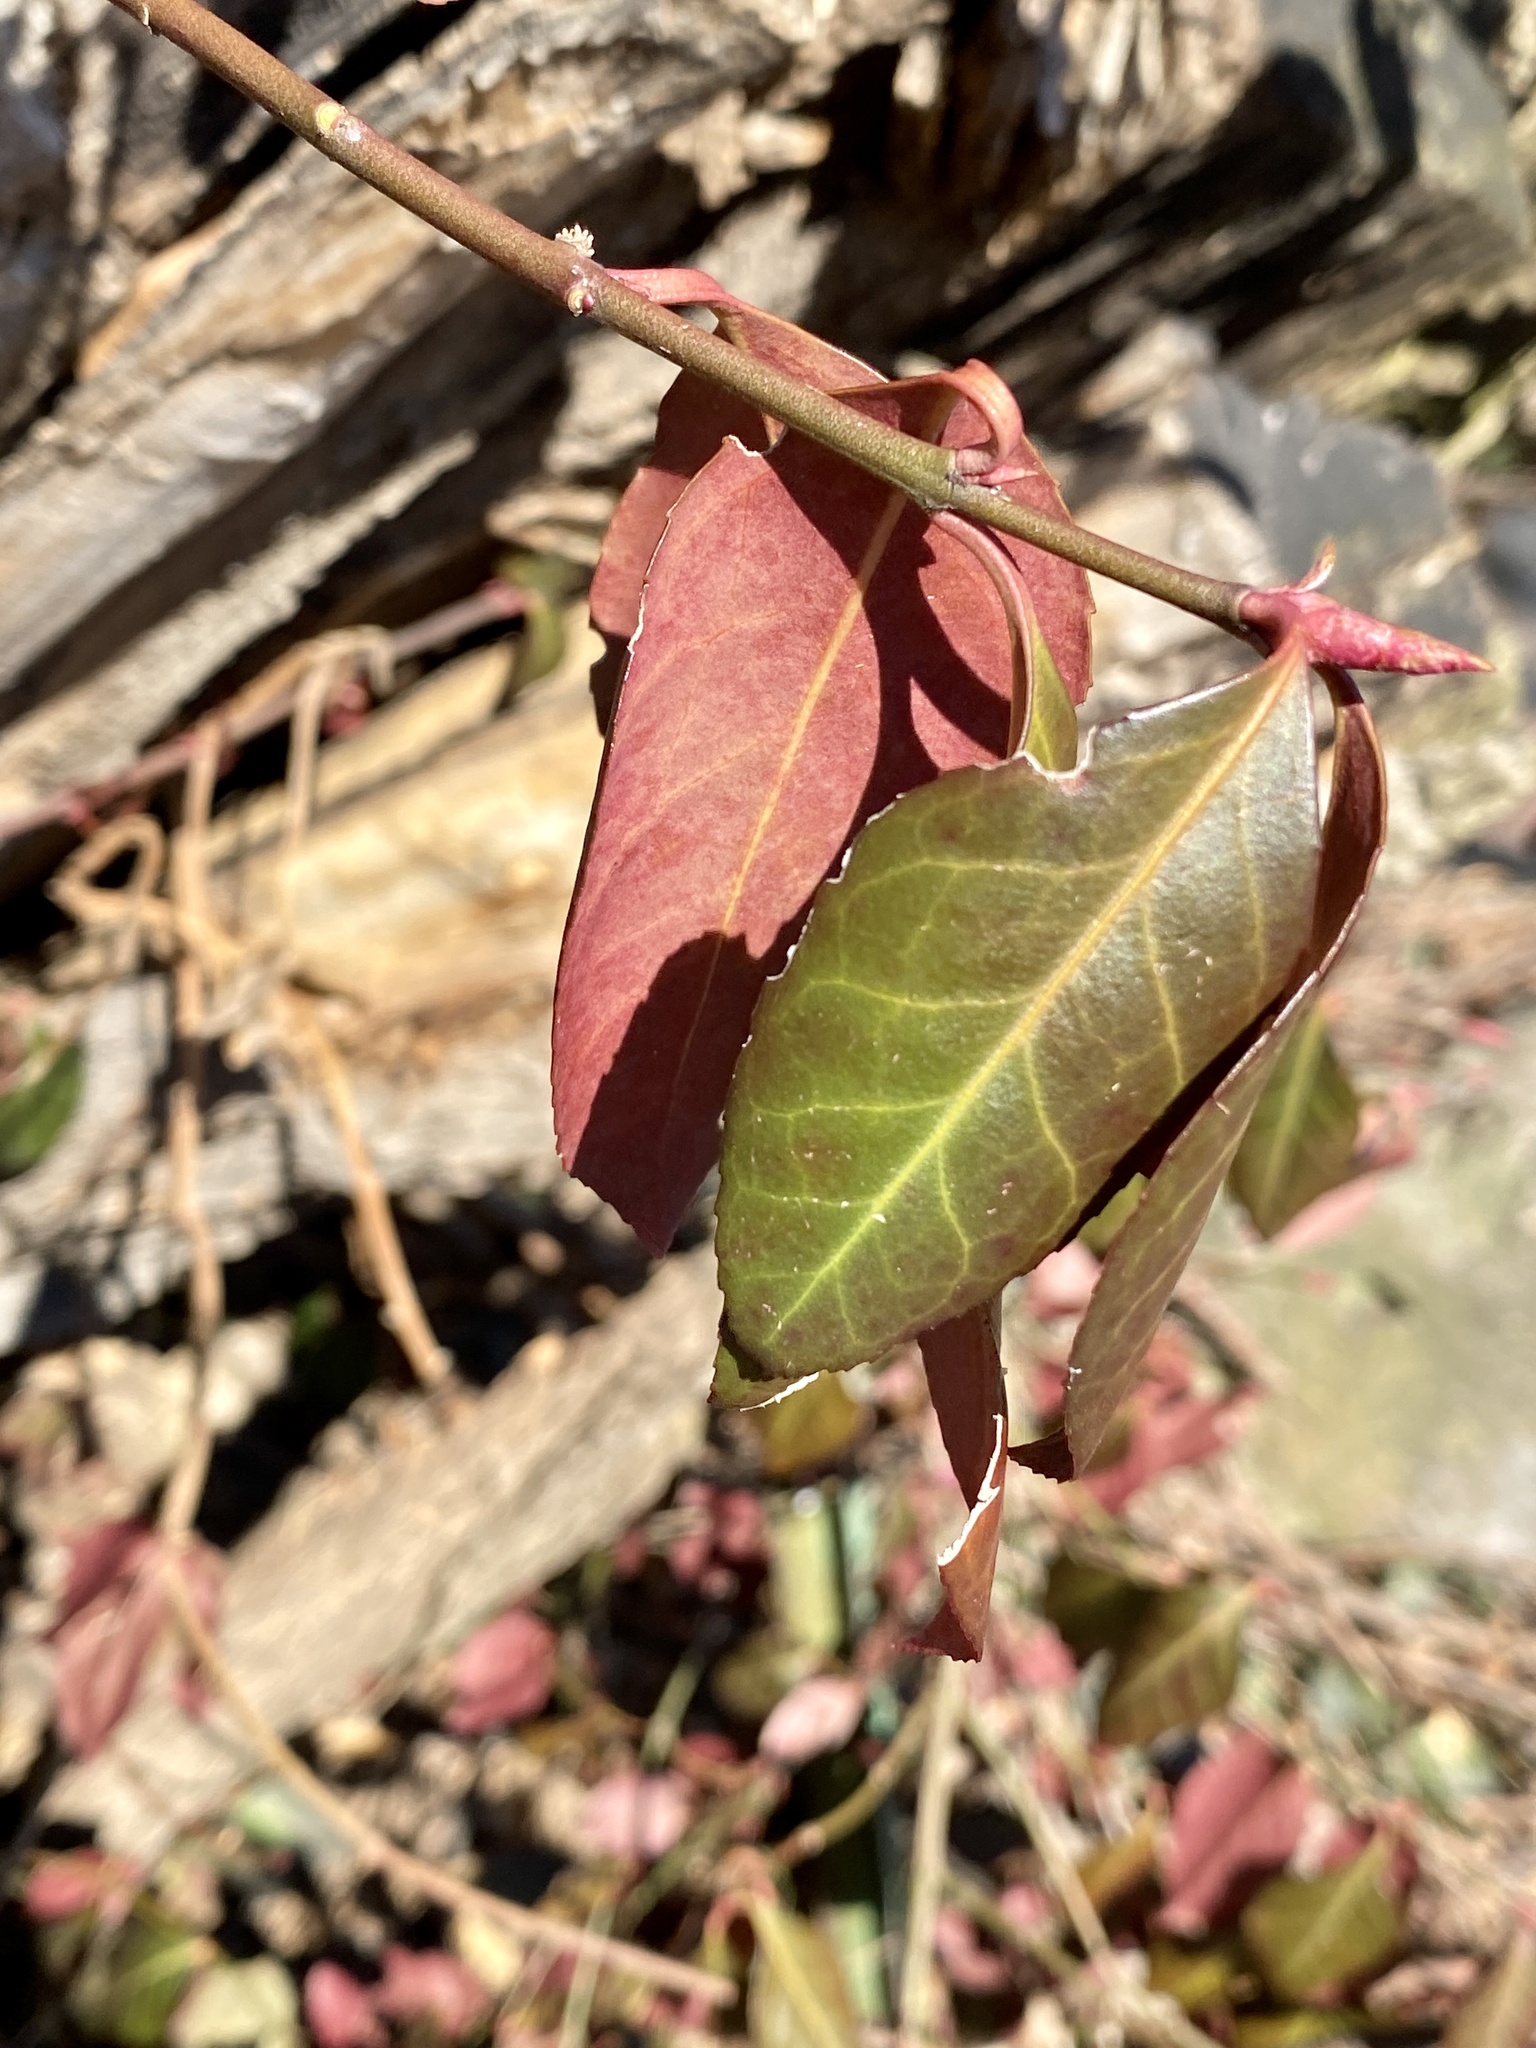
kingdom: Plantae
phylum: Tracheophyta
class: Magnoliopsida
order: Celastrales
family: Celastraceae
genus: Euonymus
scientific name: Euonymus fortunei
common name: Climbing euonymus
